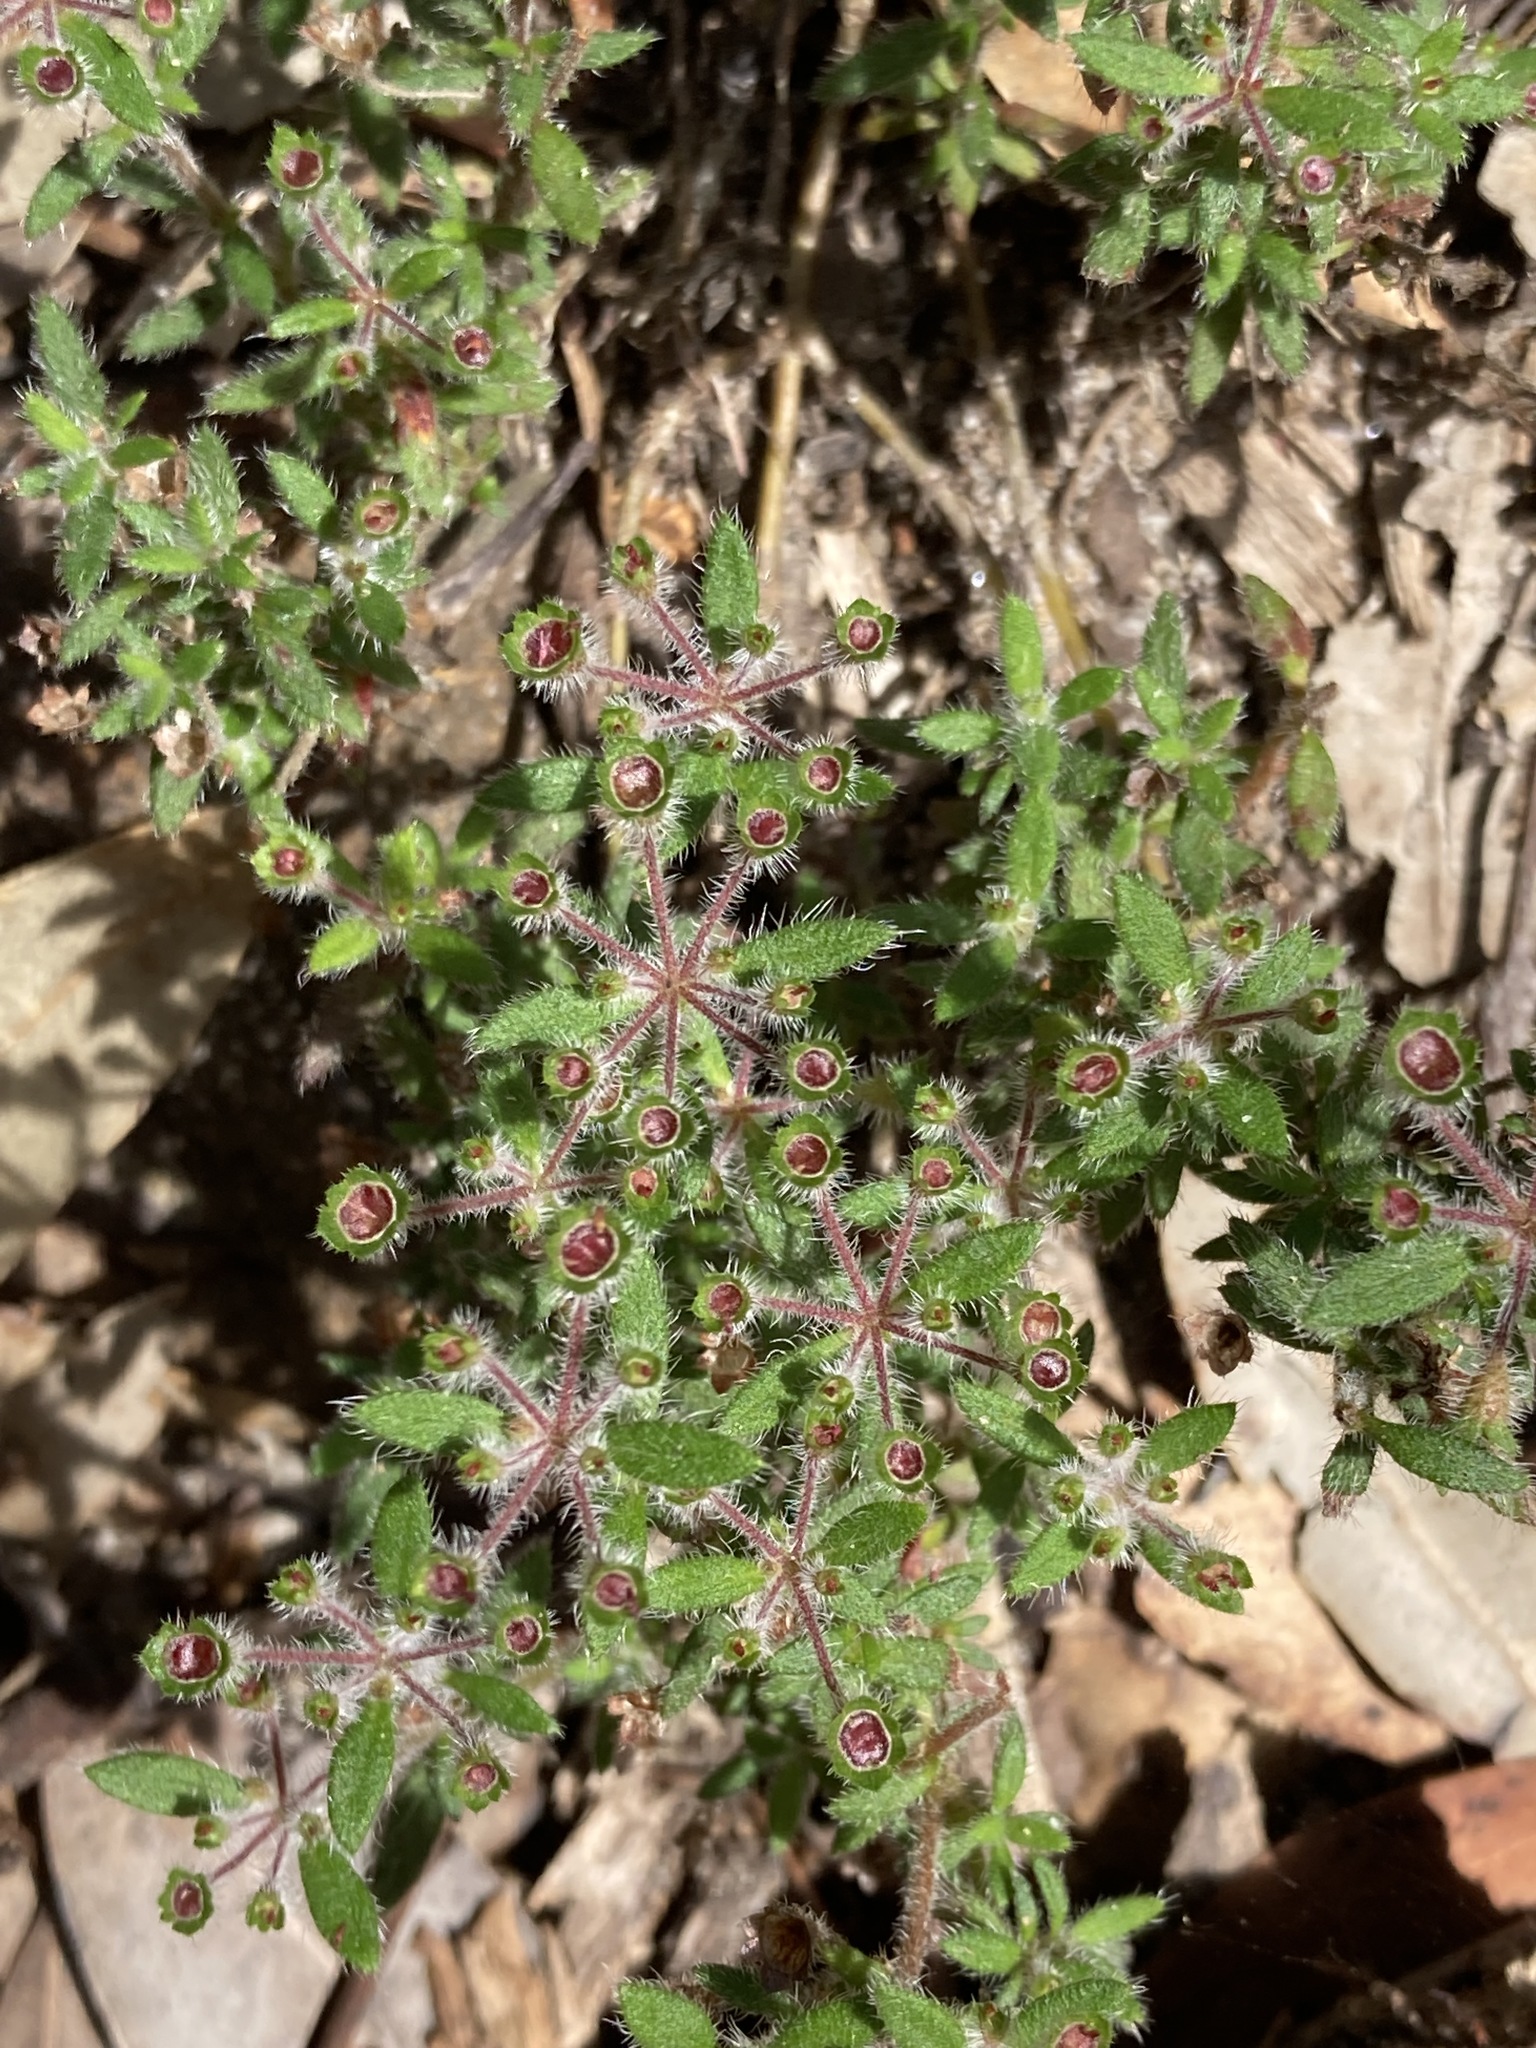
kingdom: Plantae
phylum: Tracheophyta
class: Magnoliopsida
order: Gentianales
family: Rubiaceae
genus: Pomax
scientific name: Pomax umbellata
